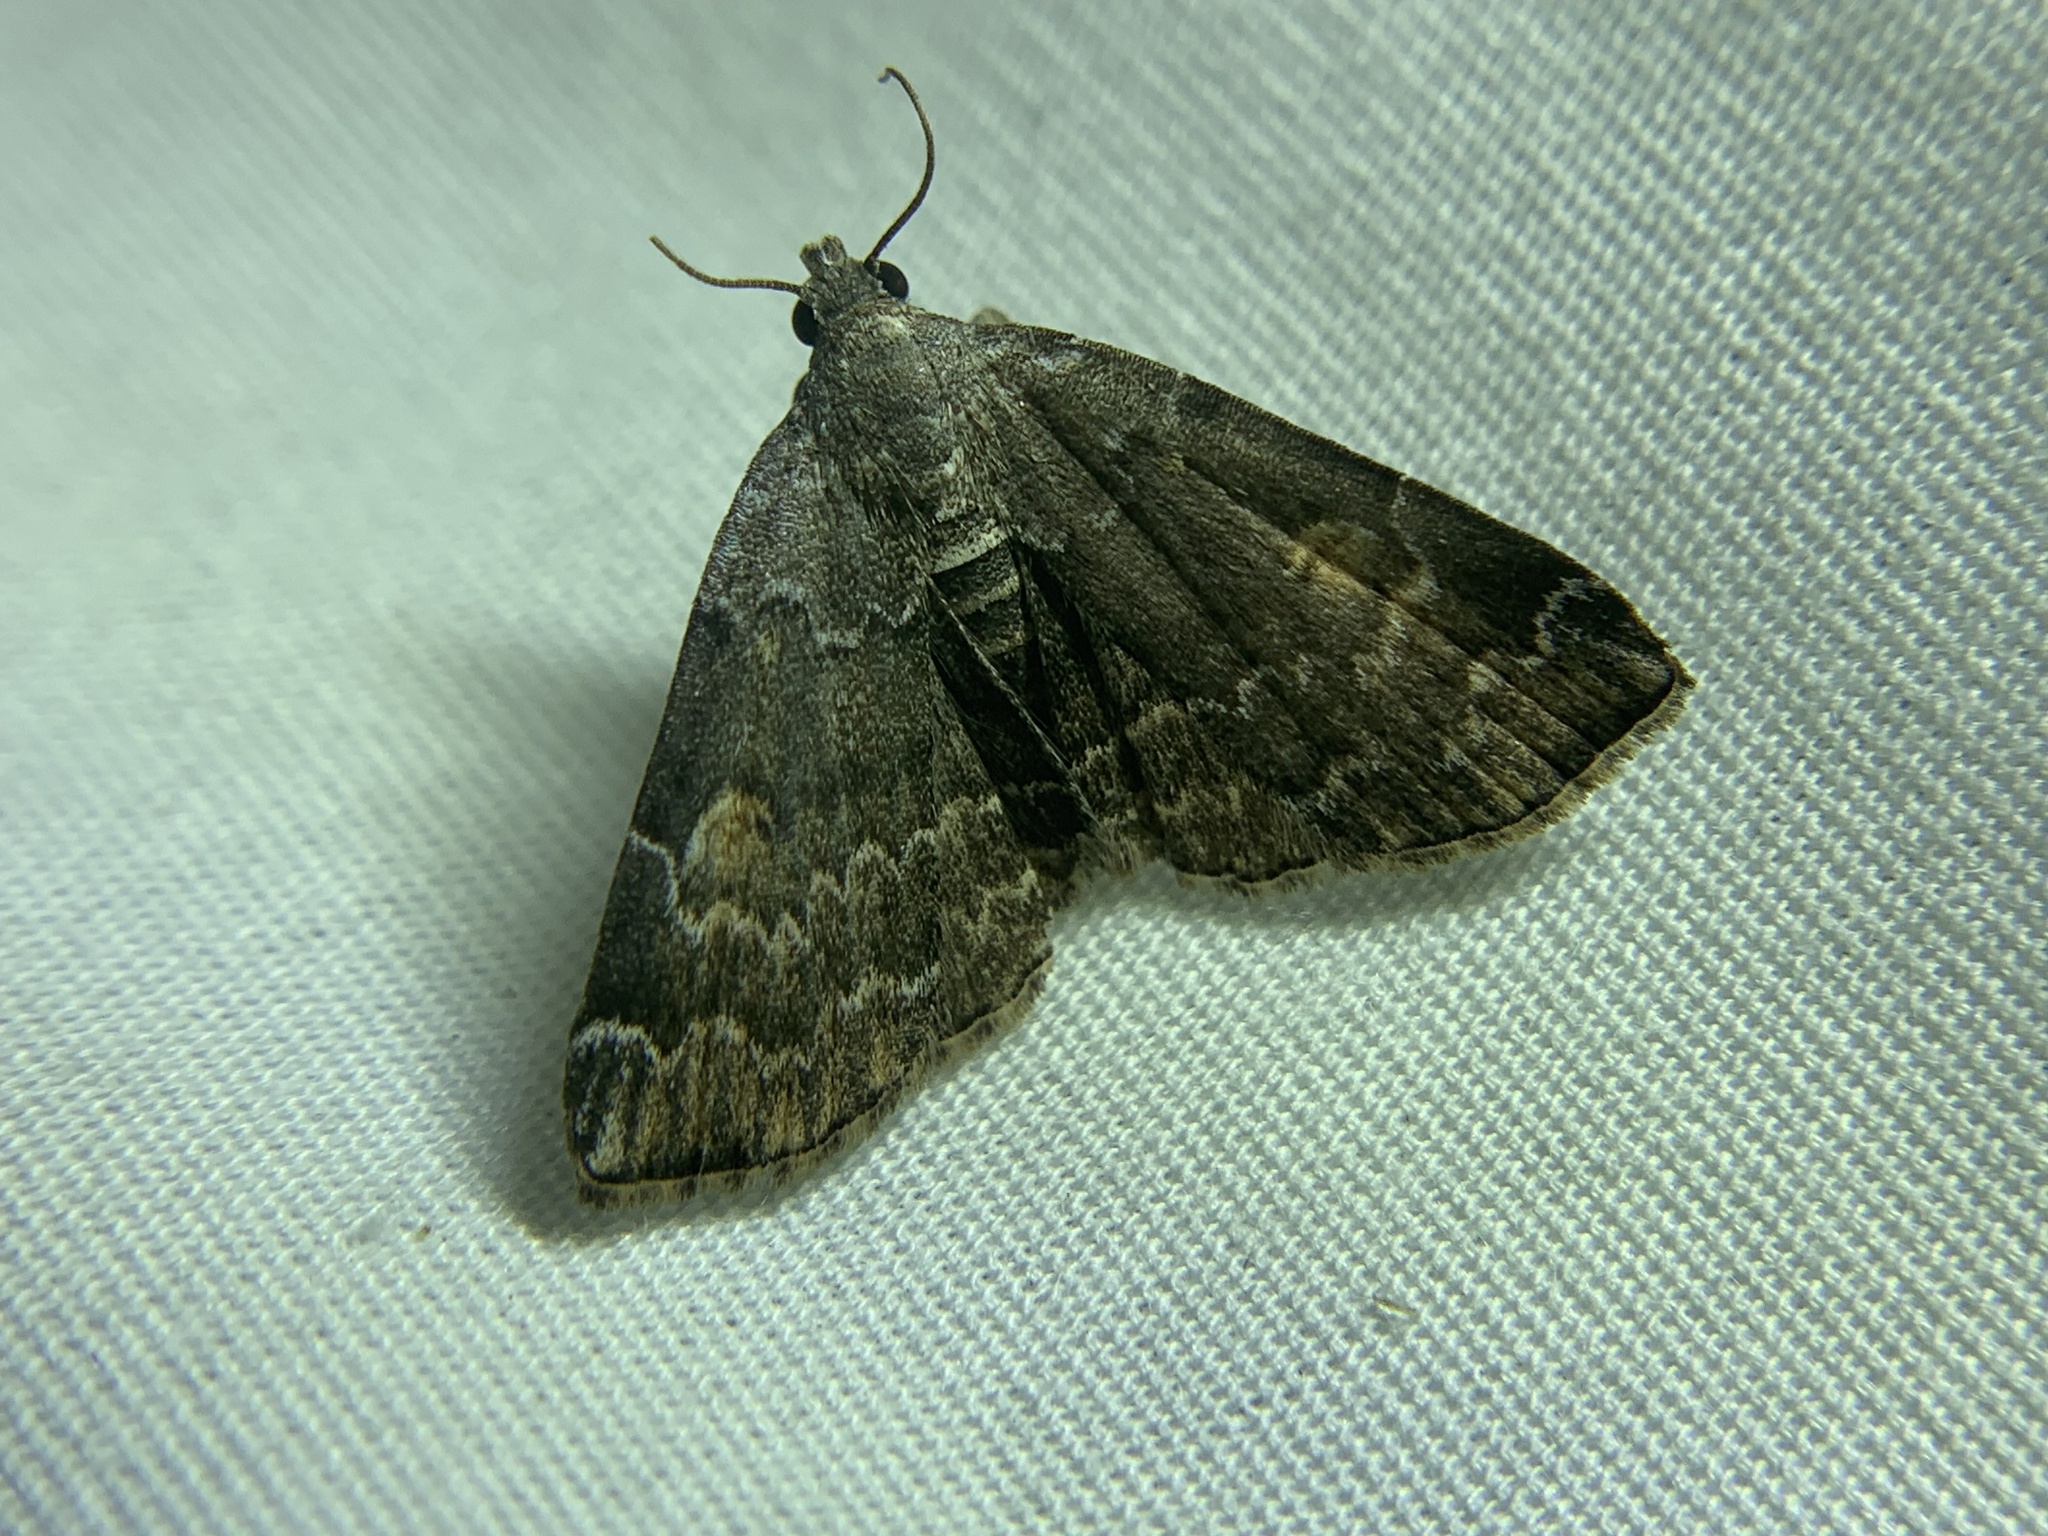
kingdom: Animalia
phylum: Arthropoda
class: Insecta
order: Lepidoptera
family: Erebidae
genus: Idia
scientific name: Idia americalis
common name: American idia moth
